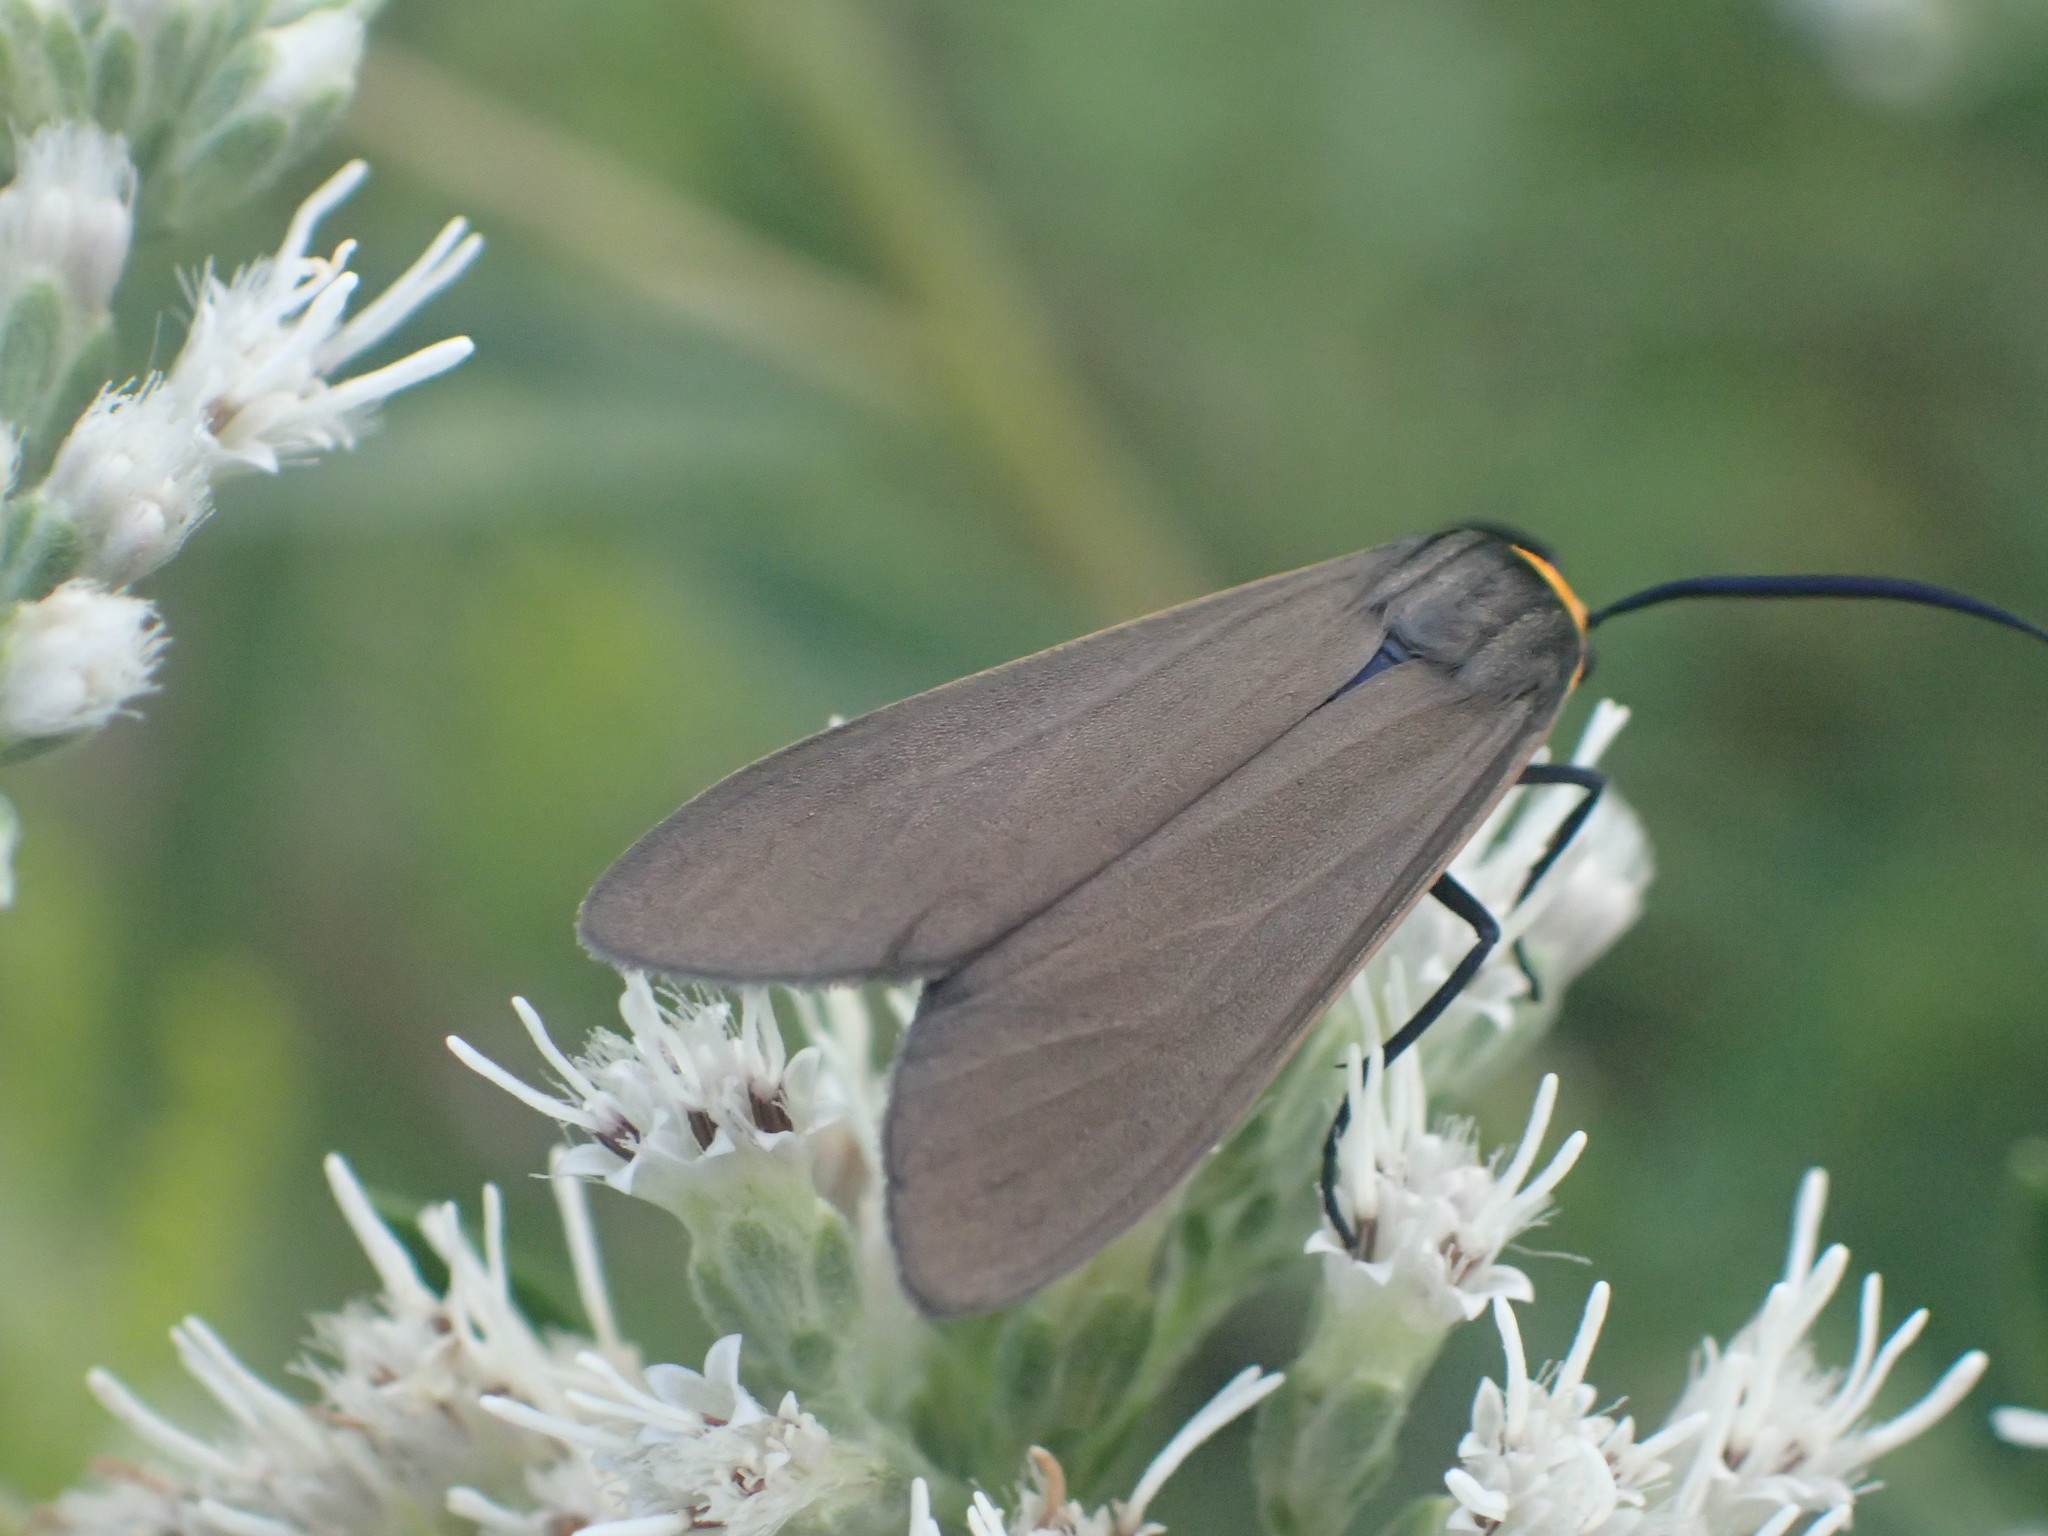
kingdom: Animalia
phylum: Arthropoda
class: Insecta
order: Lepidoptera
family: Erebidae
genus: Cisseps
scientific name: Cisseps fulvicollis
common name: Yellow-collared scape moth
